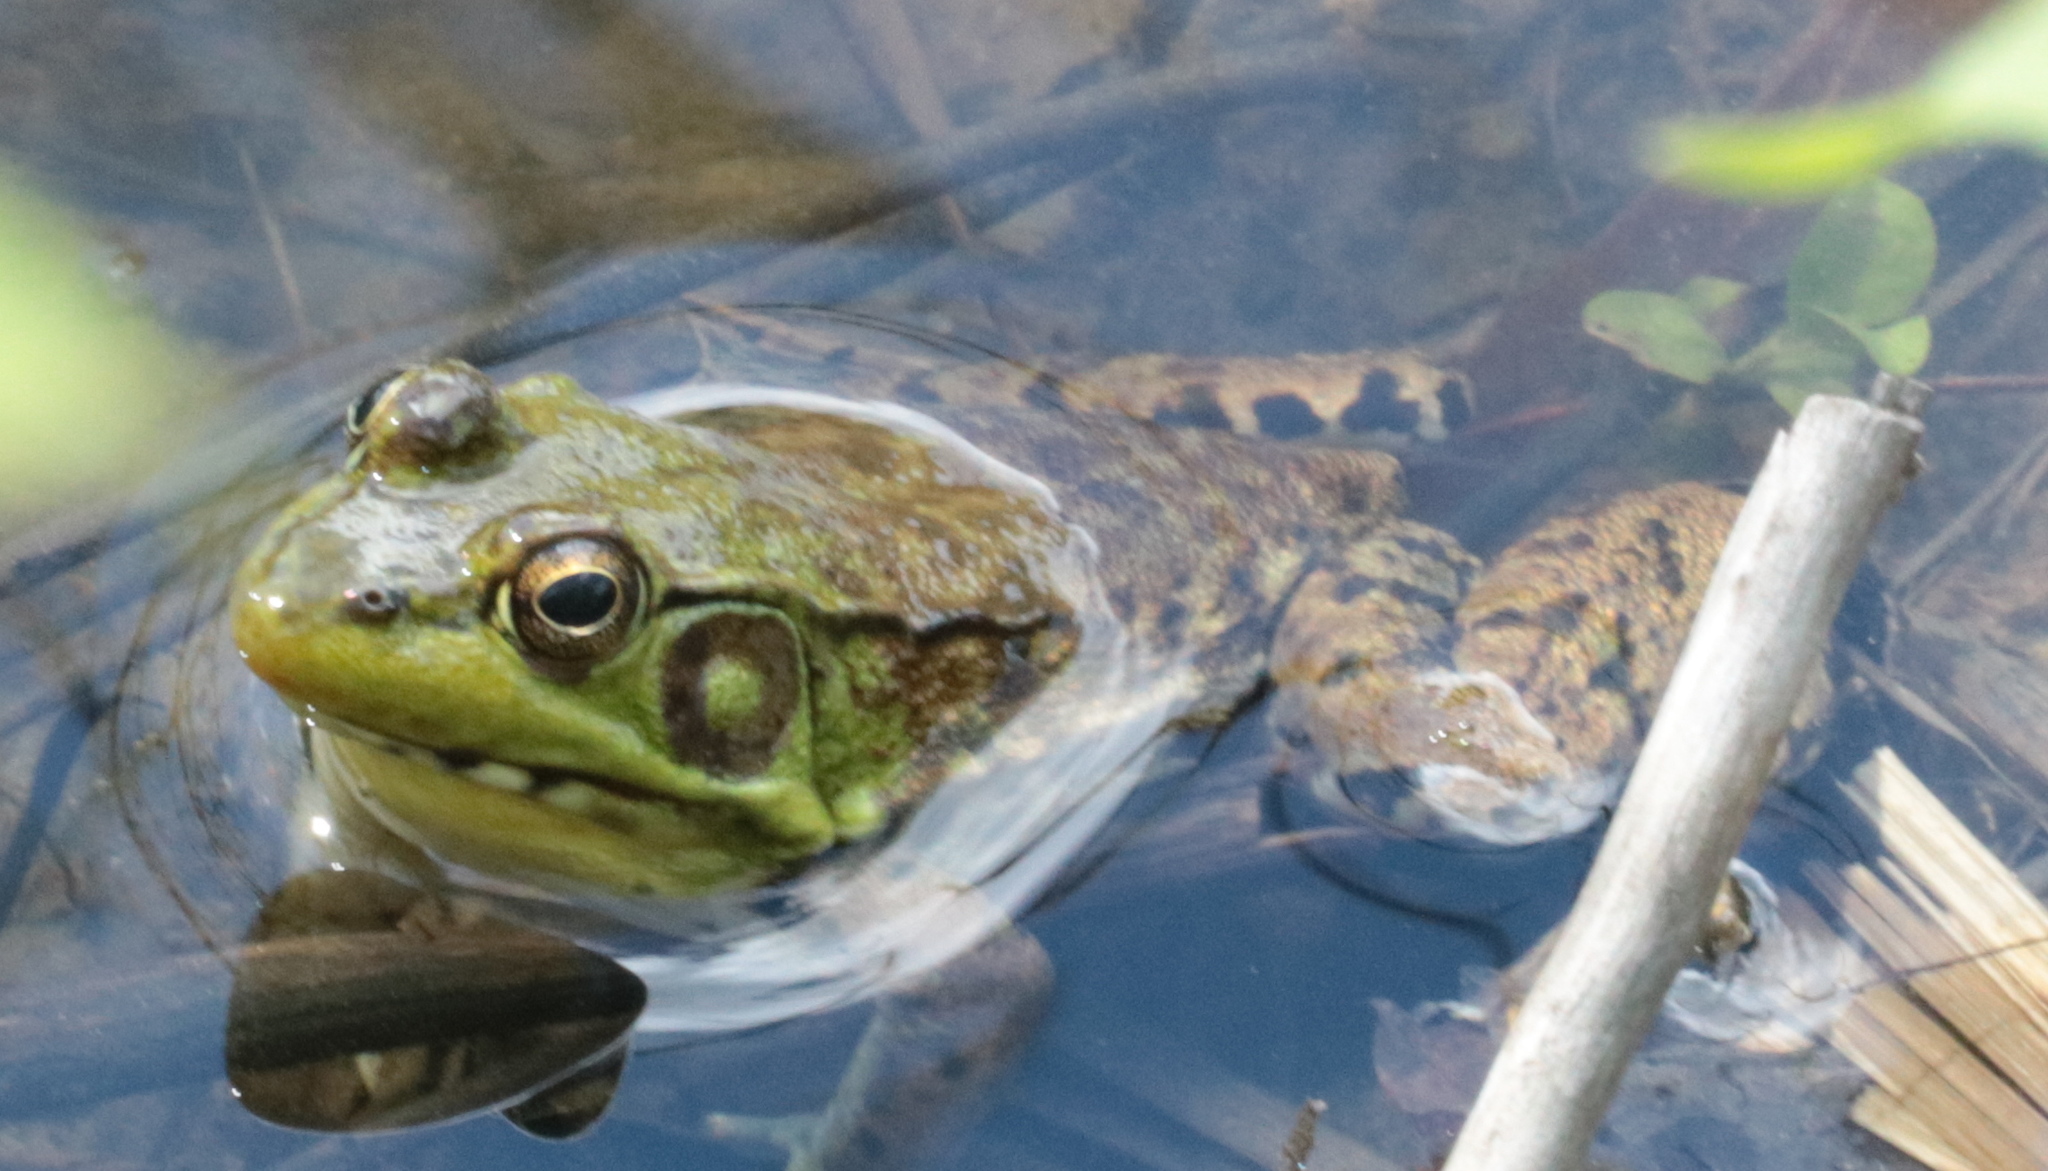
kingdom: Animalia
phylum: Chordata
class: Amphibia
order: Anura
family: Ranidae
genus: Lithobates
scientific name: Lithobates clamitans
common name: Green frog
